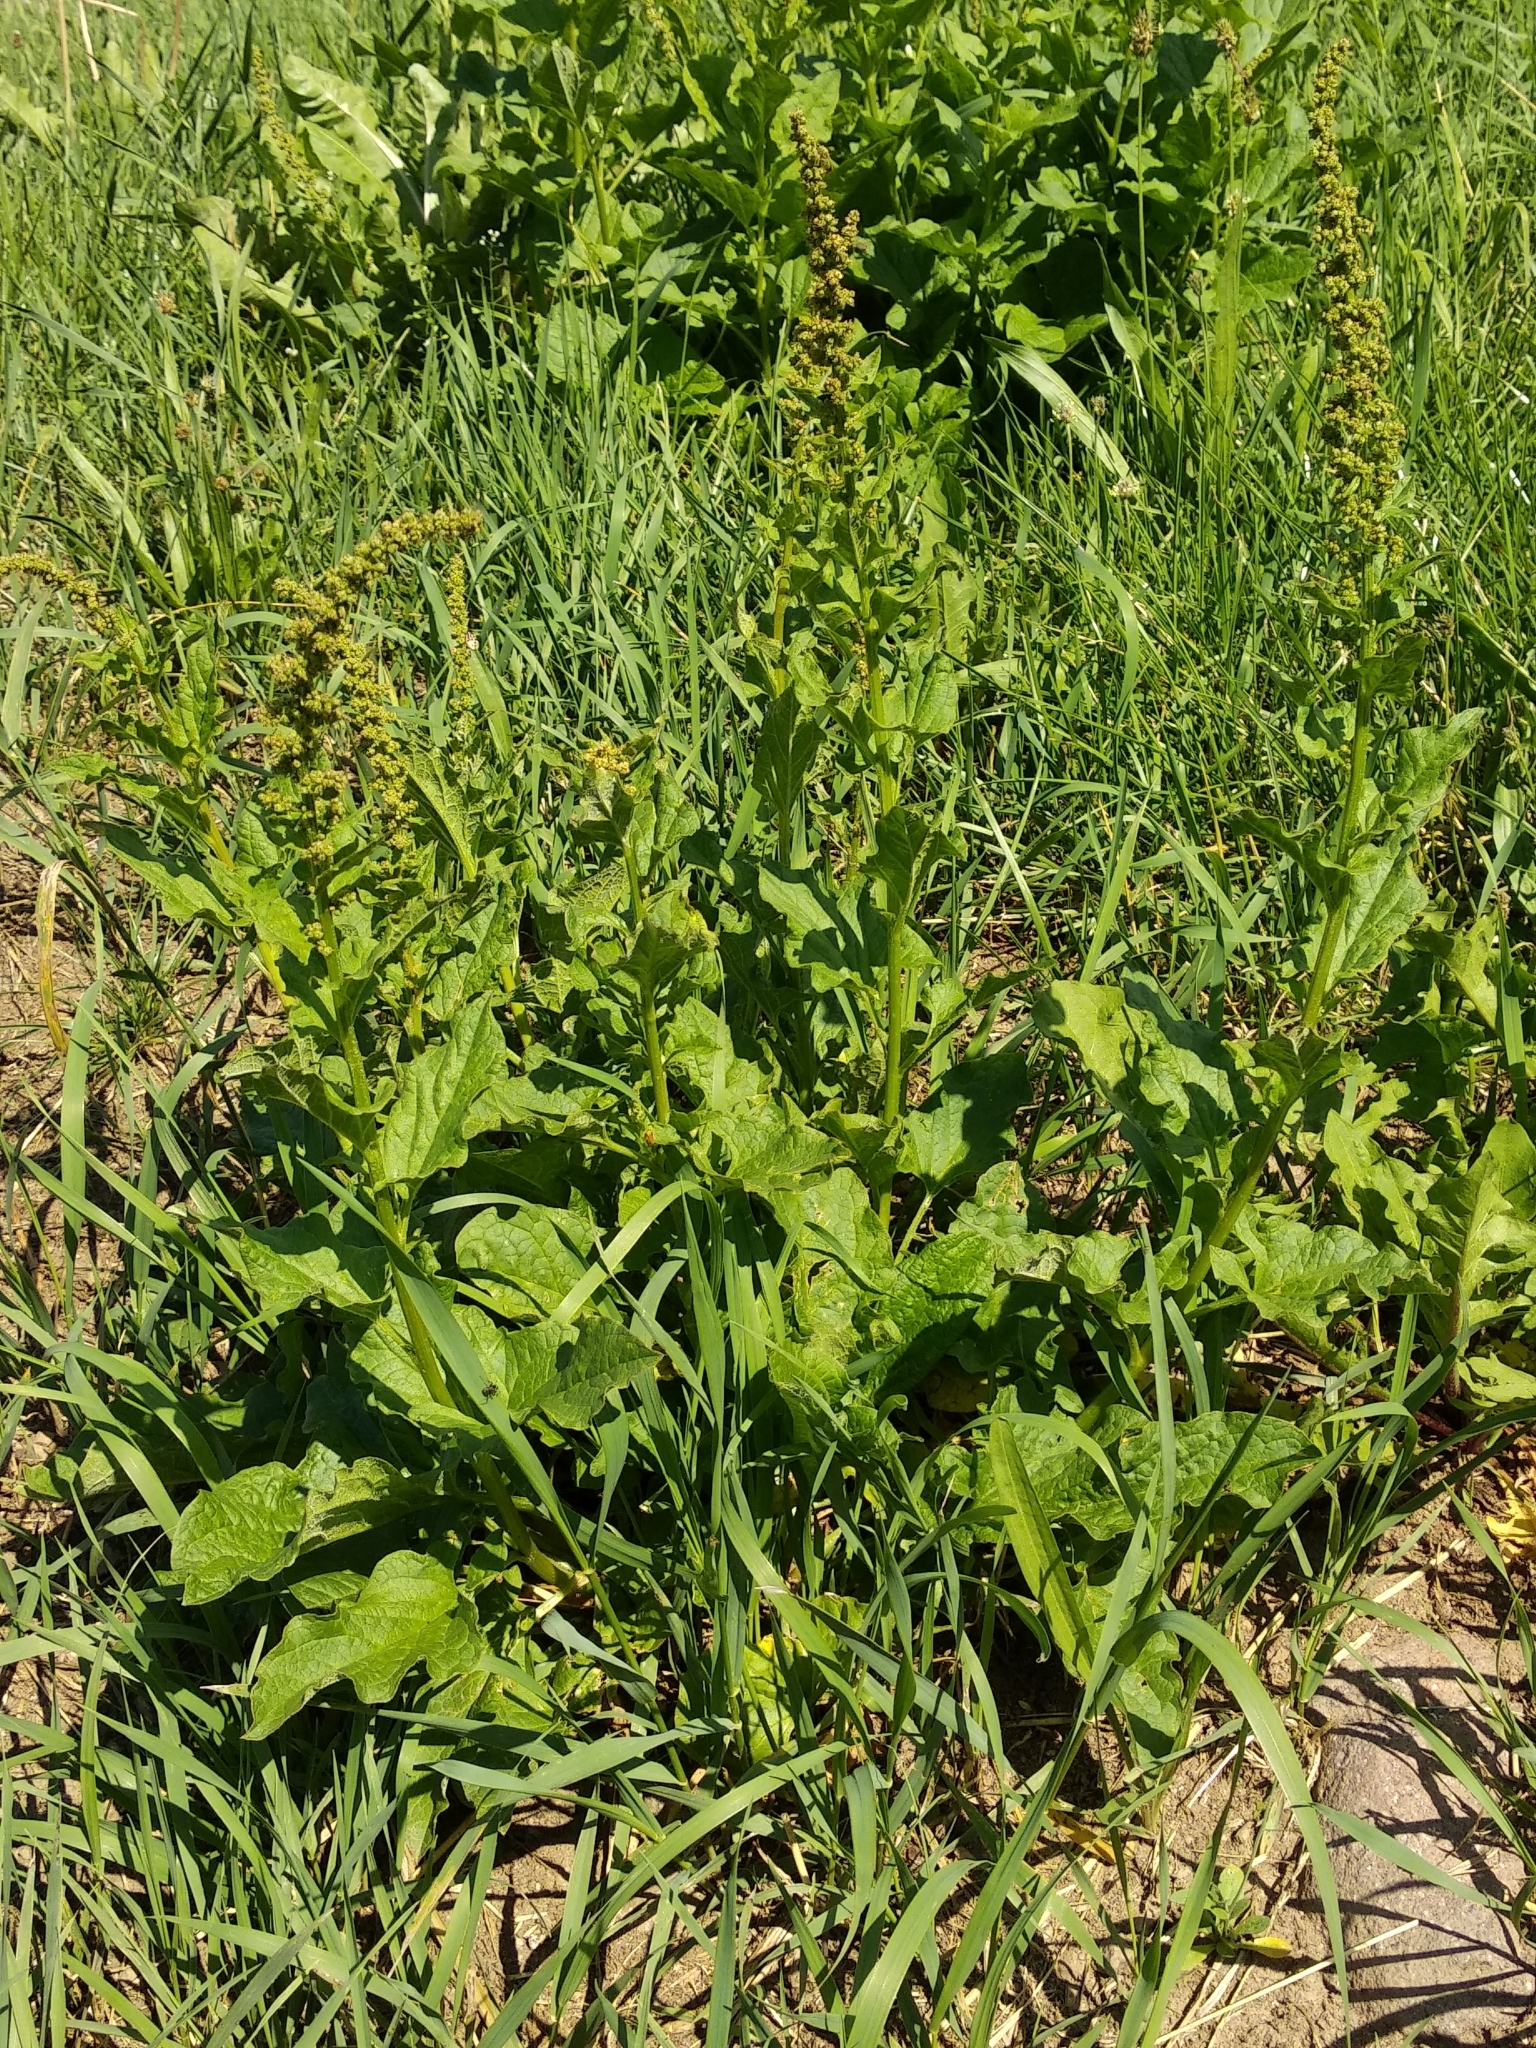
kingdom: Plantae
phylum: Tracheophyta
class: Magnoliopsida
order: Caryophyllales
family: Amaranthaceae
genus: Blitum
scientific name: Blitum bonus-henricus
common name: Good king henry
